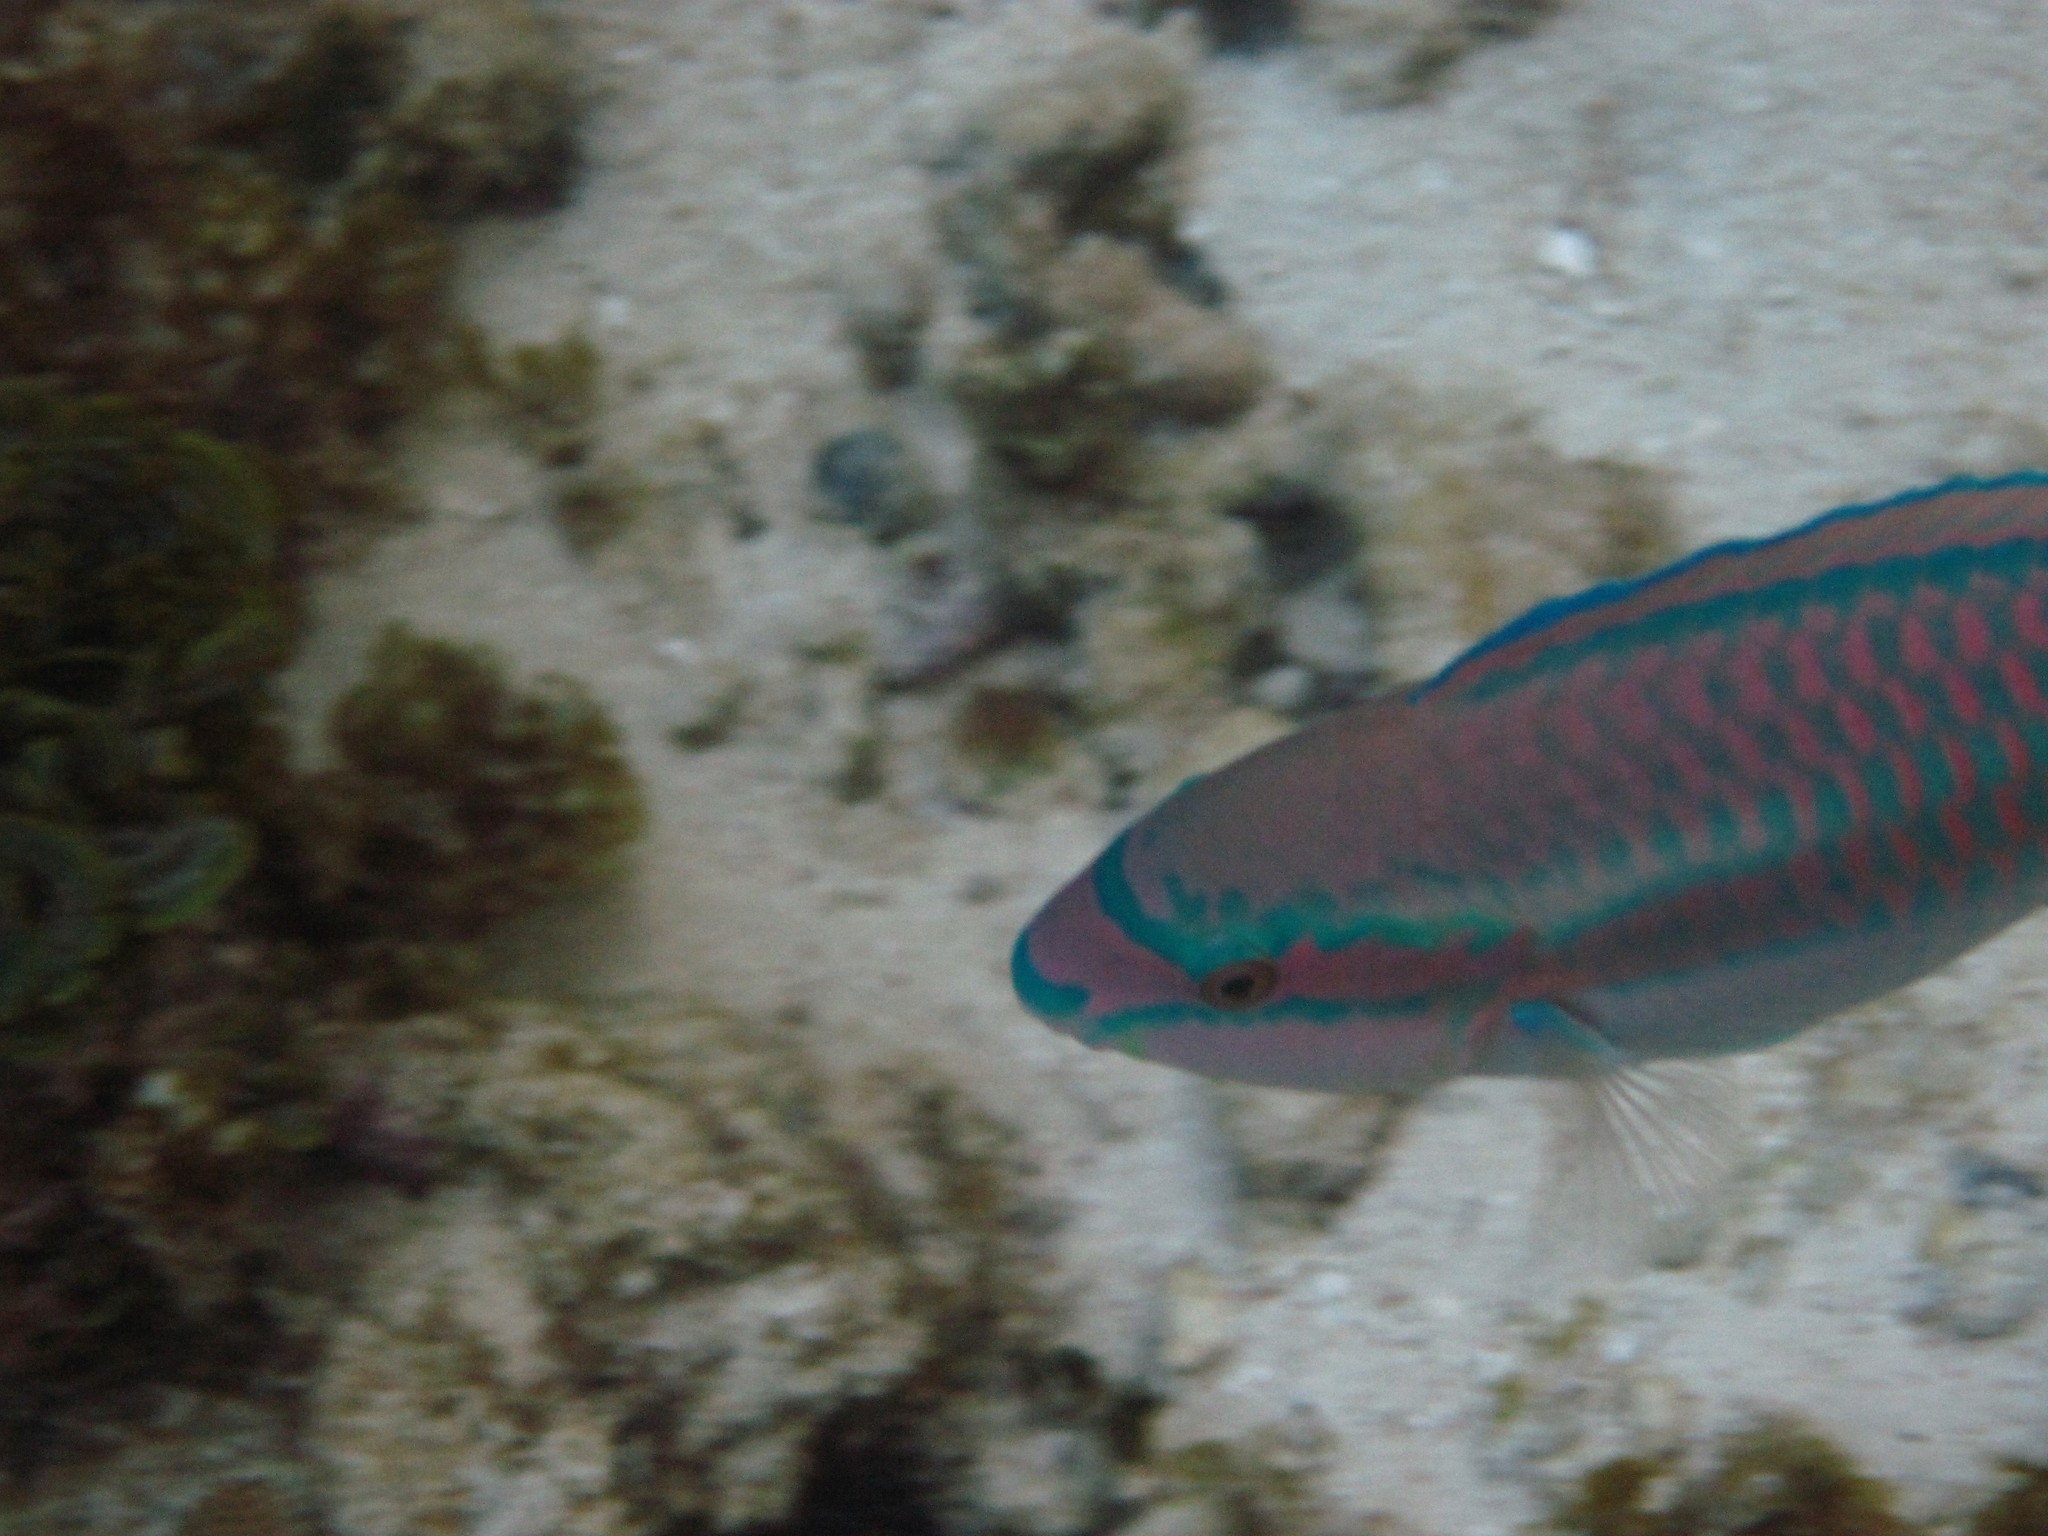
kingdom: Animalia
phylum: Chordata
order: Perciformes
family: Scaridae
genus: Scarus
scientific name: Scarus iseri
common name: Striped parrotfish
